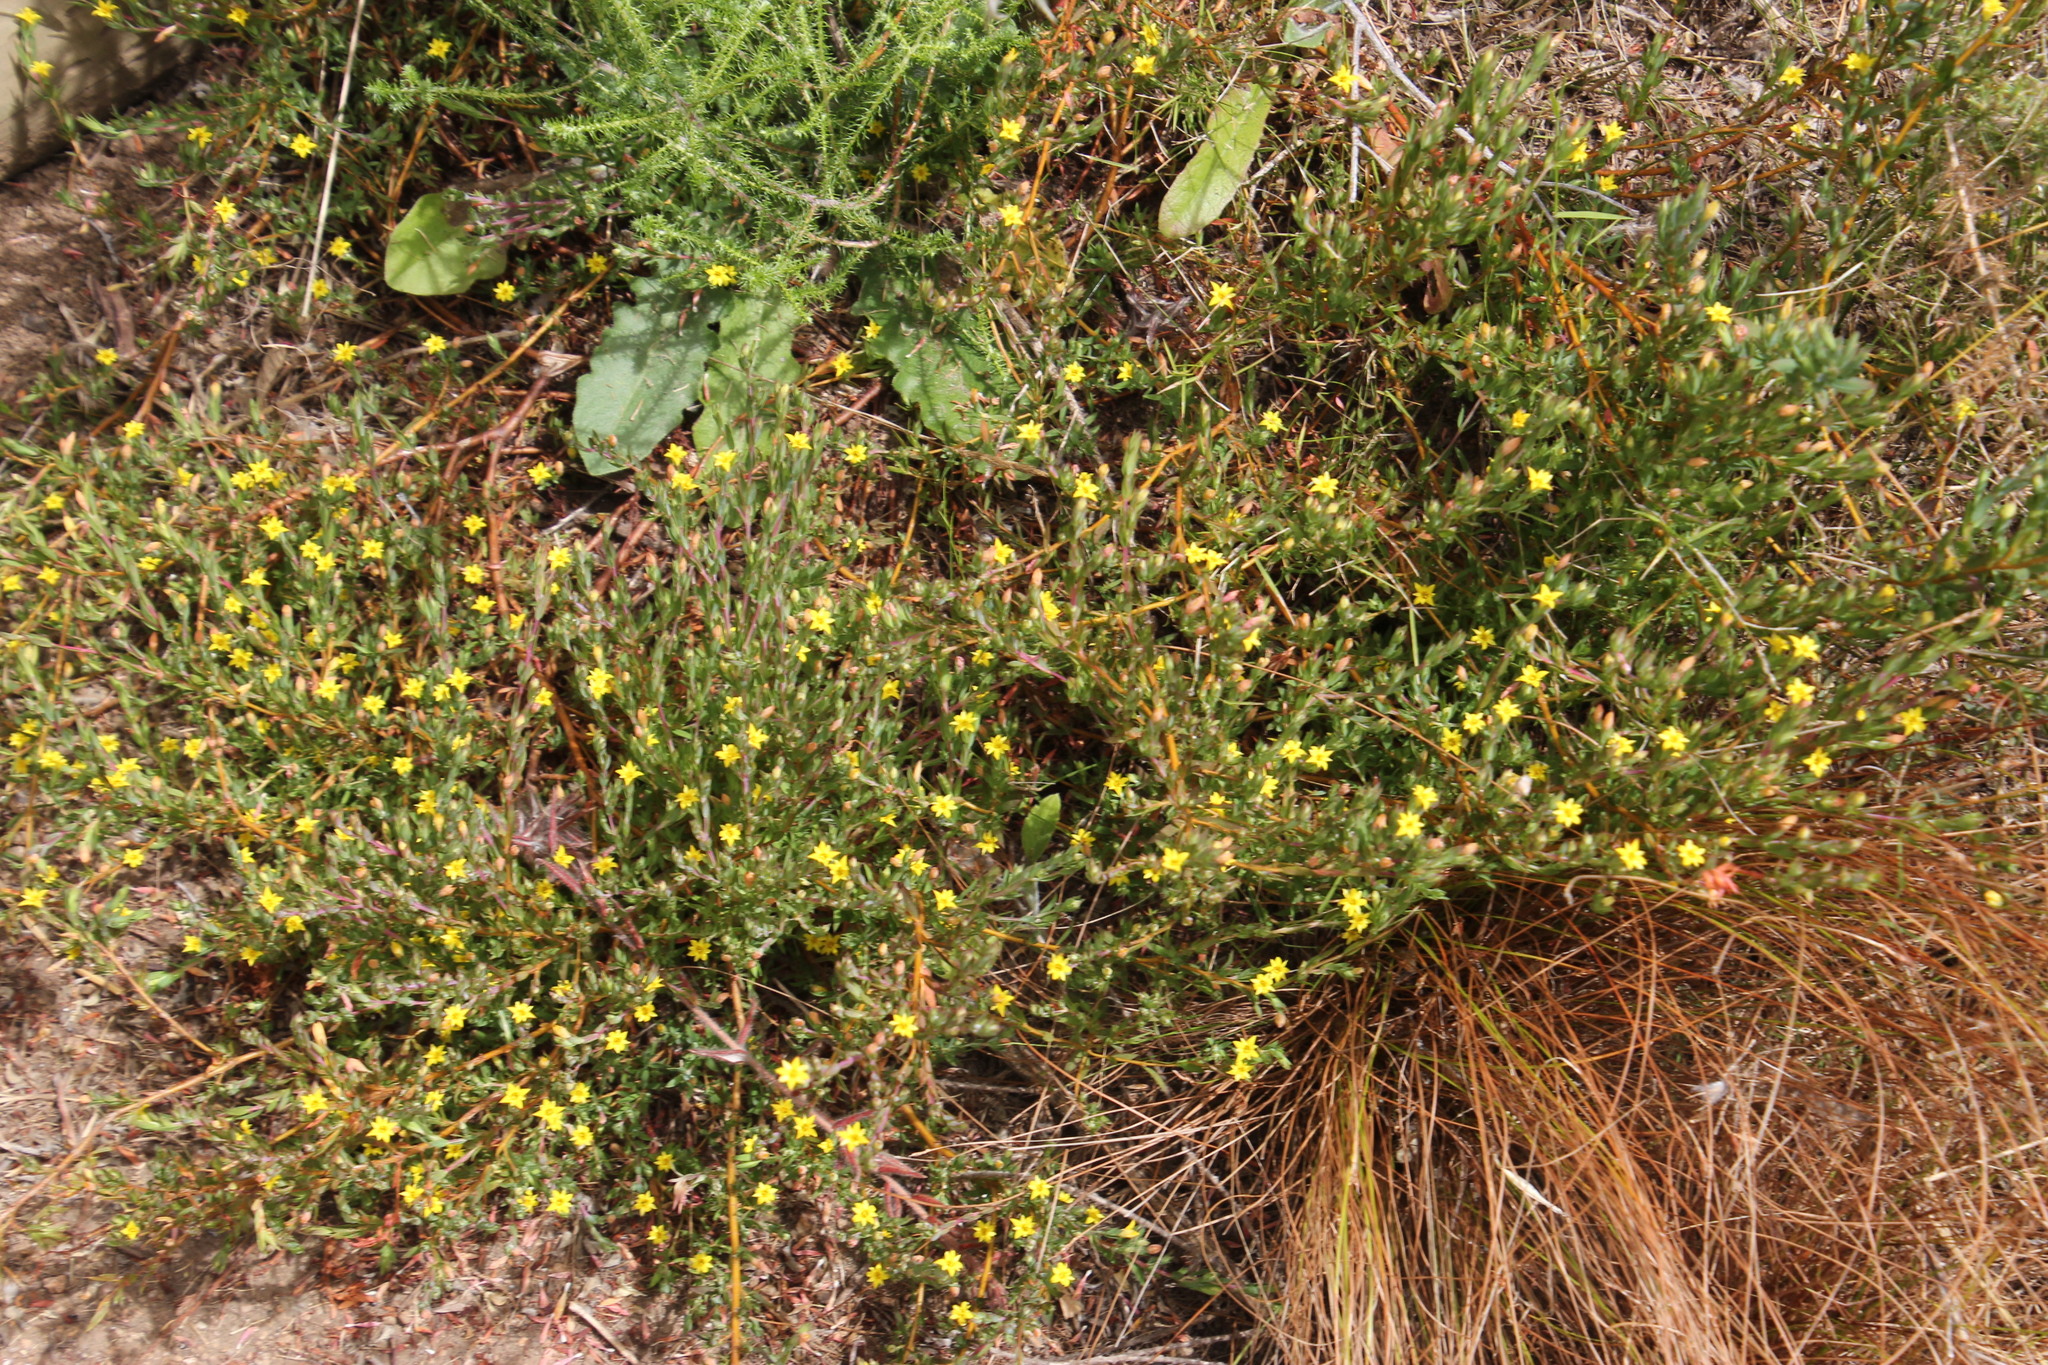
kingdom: Plantae
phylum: Tracheophyta
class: Magnoliopsida
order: Malvales
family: Thymelaeaceae
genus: Gnidia
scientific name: Gnidia juniperifolia
